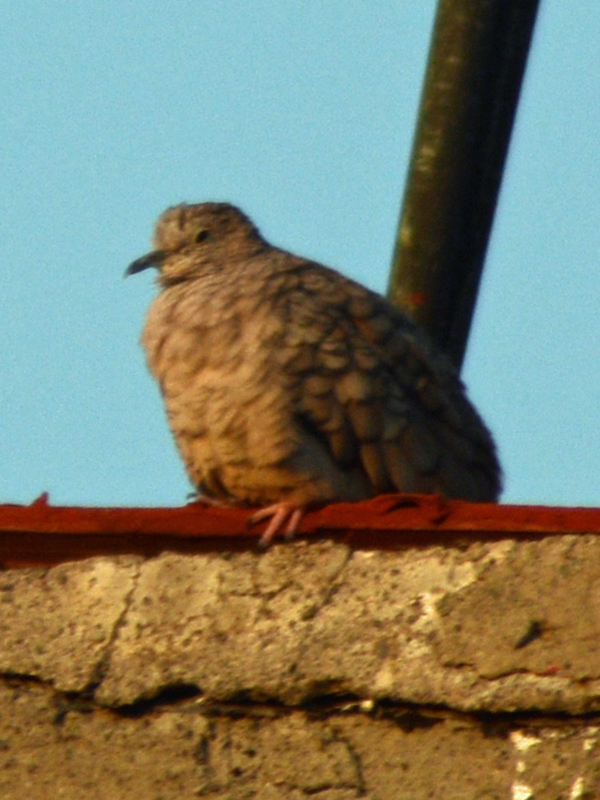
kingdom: Animalia
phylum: Chordata
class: Aves
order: Columbiformes
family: Columbidae
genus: Columbina
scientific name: Columbina inca
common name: Inca dove
